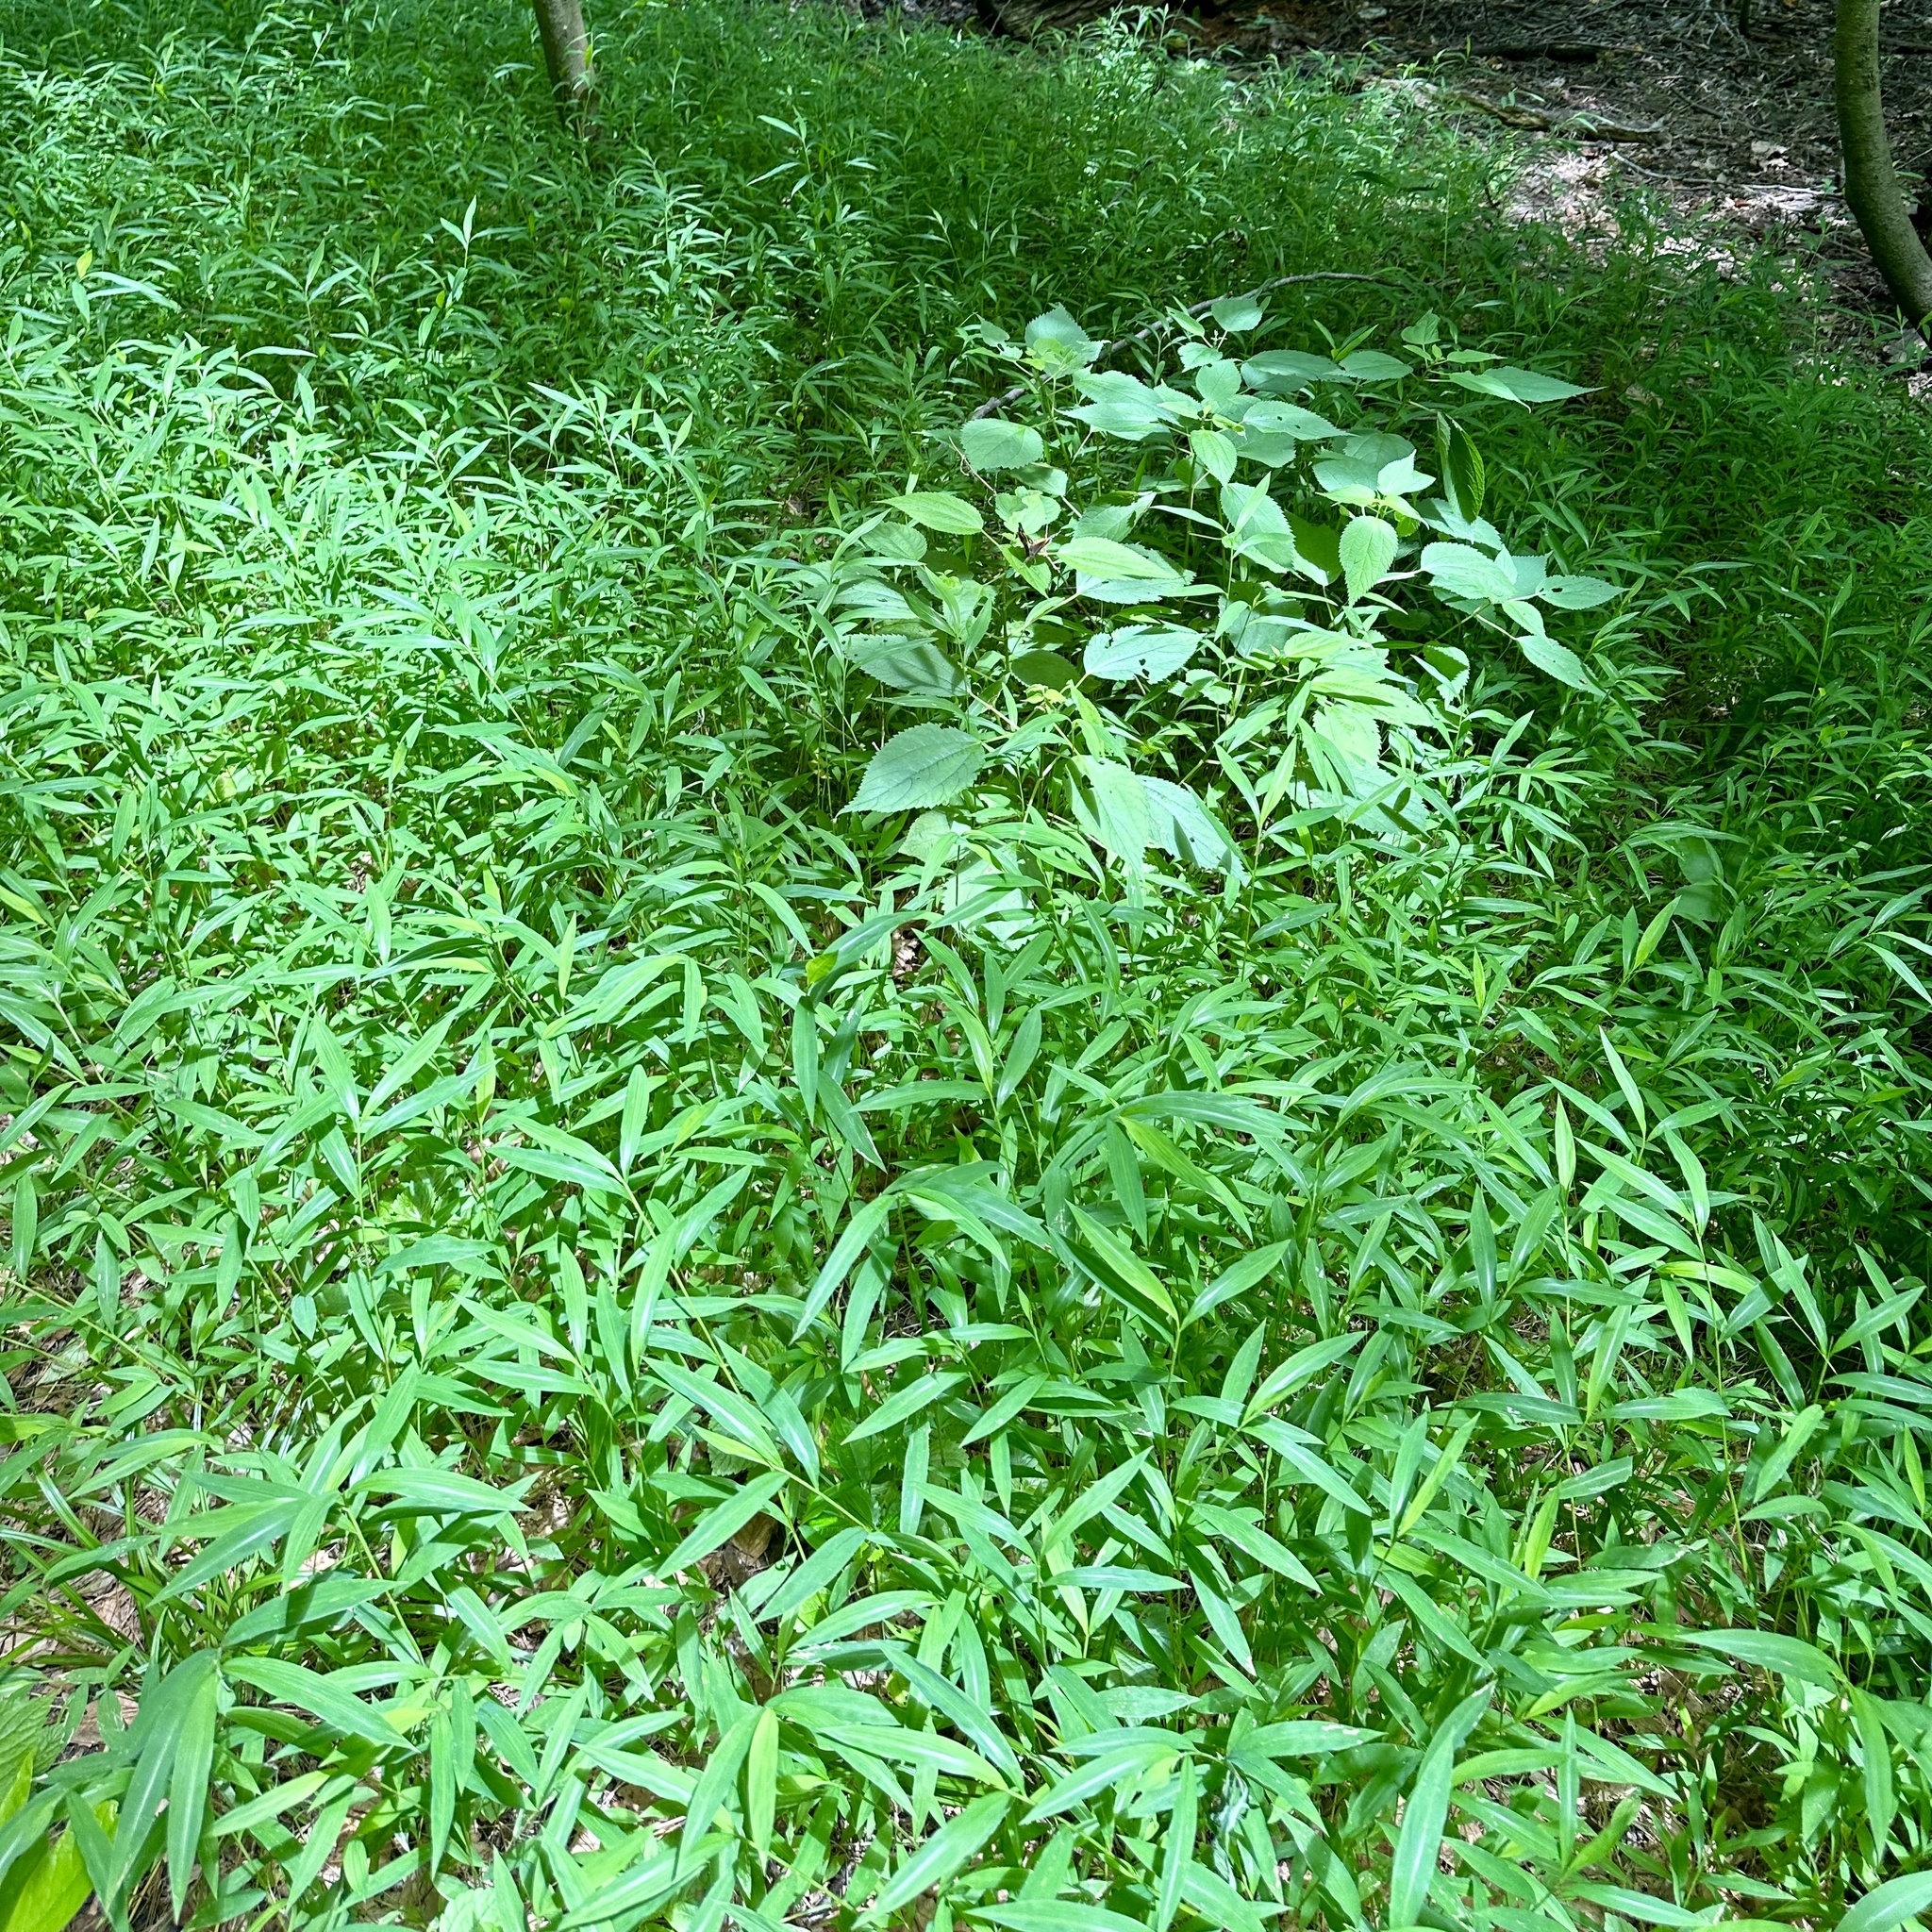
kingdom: Plantae
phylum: Tracheophyta
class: Liliopsida
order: Poales
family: Poaceae
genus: Microstegium
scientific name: Microstegium vimineum
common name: Japanese stiltgrass
